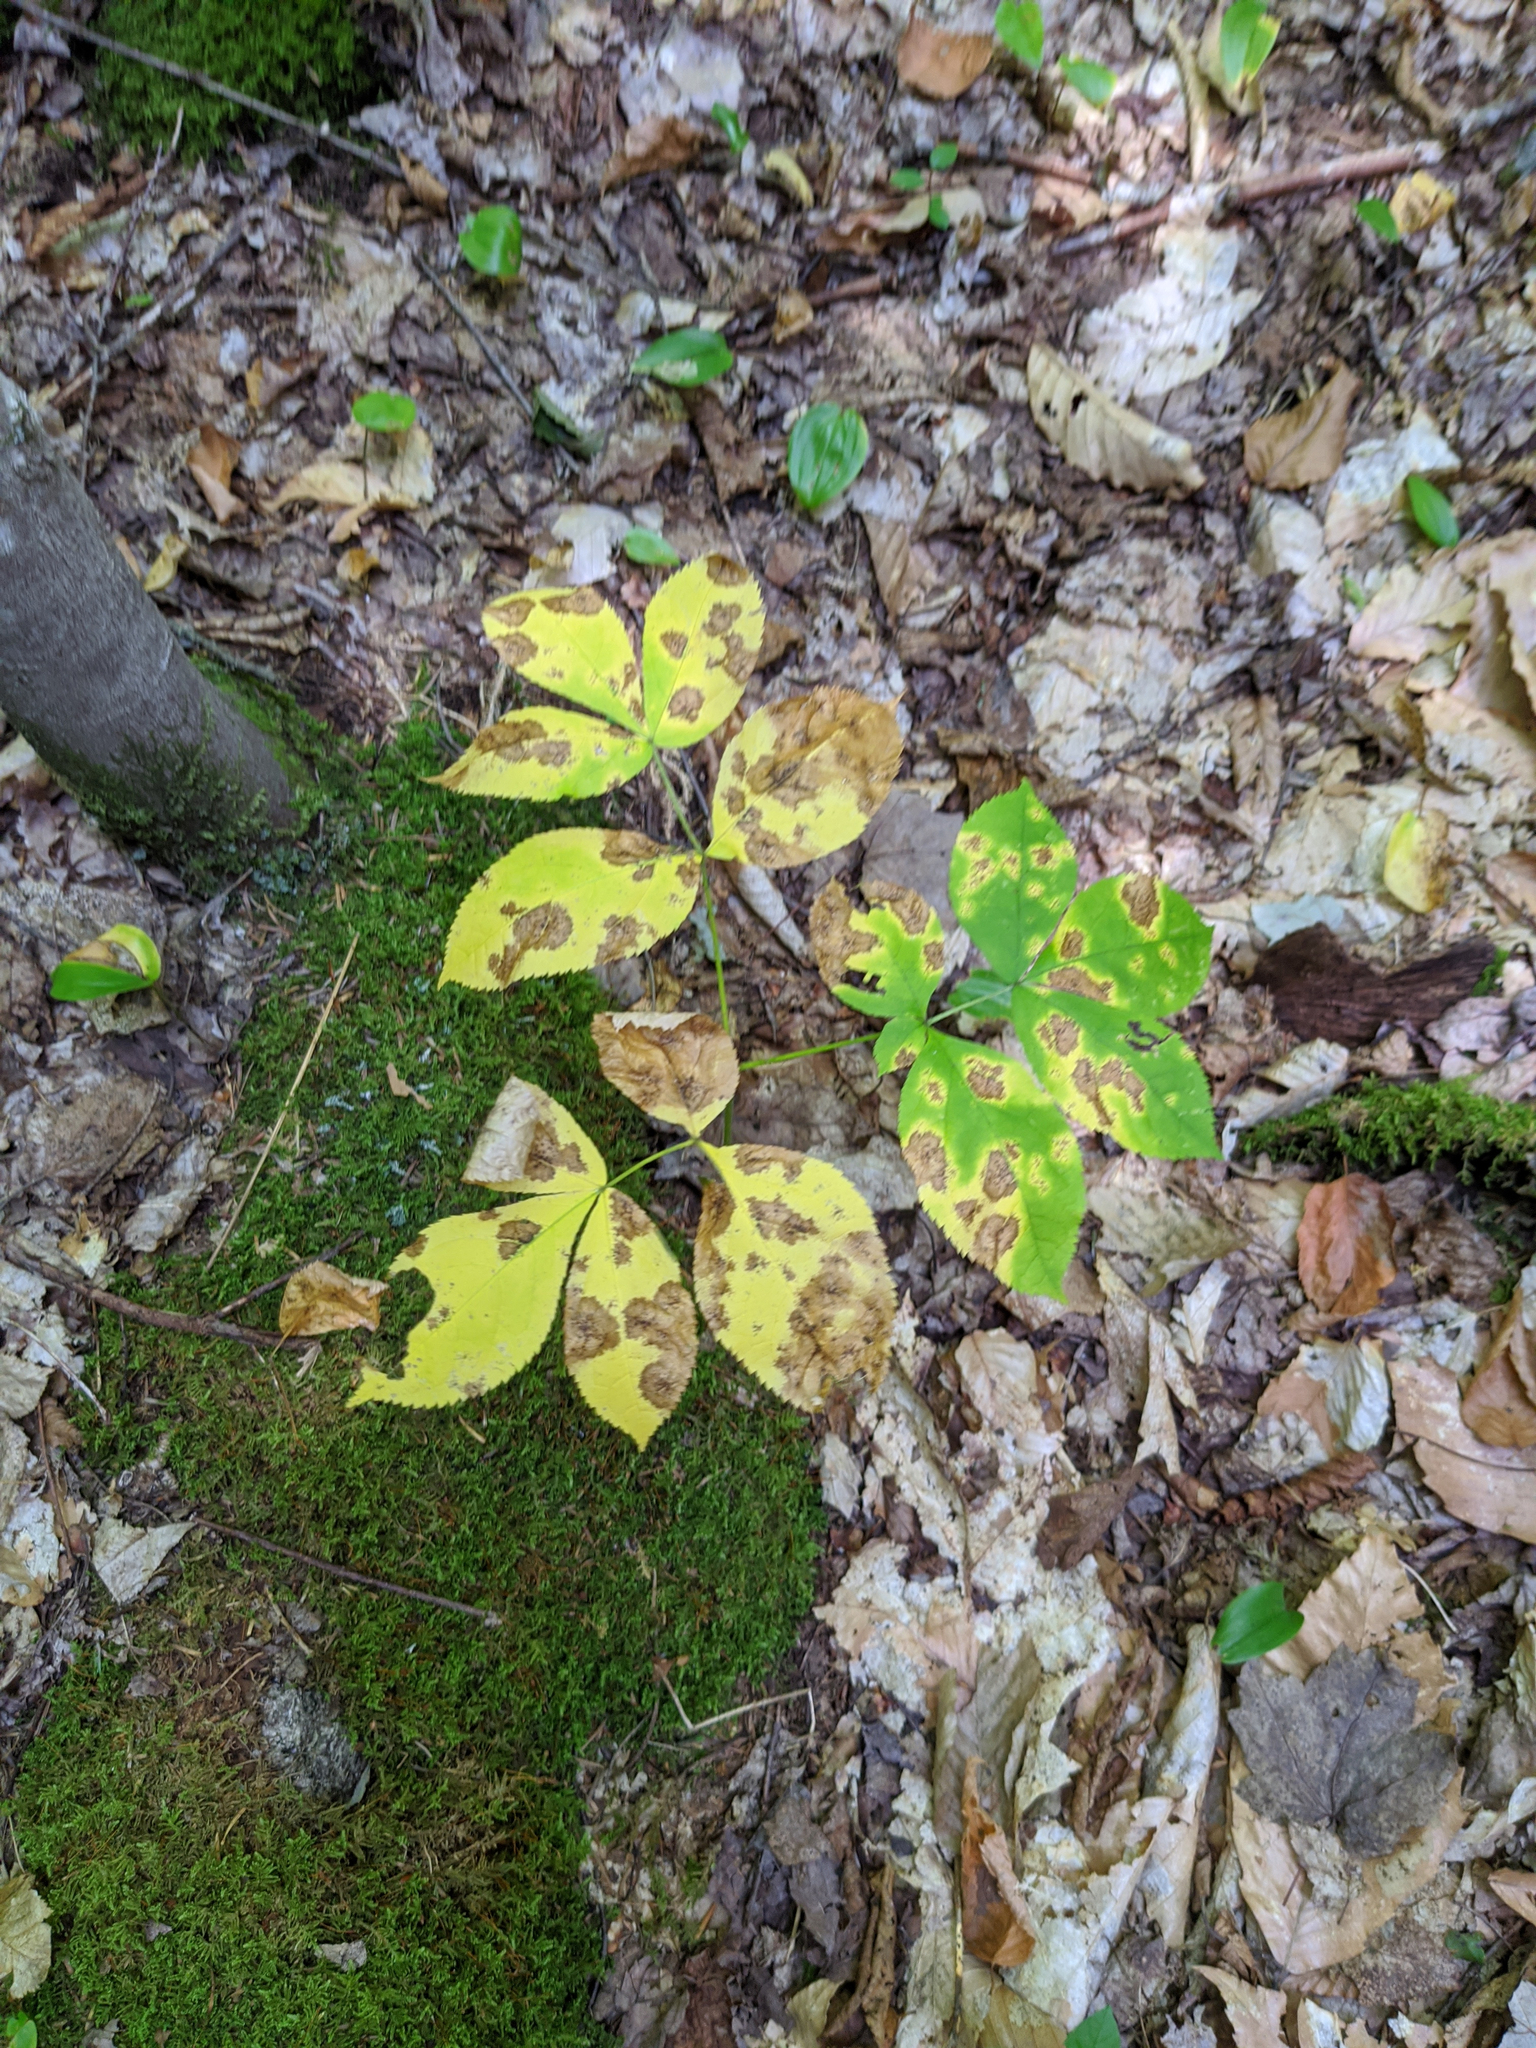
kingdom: Plantae
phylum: Tracheophyta
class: Magnoliopsida
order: Apiales
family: Araliaceae
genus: Aralia
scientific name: Aralia nudicaulis
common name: Wild sarsaparilla
